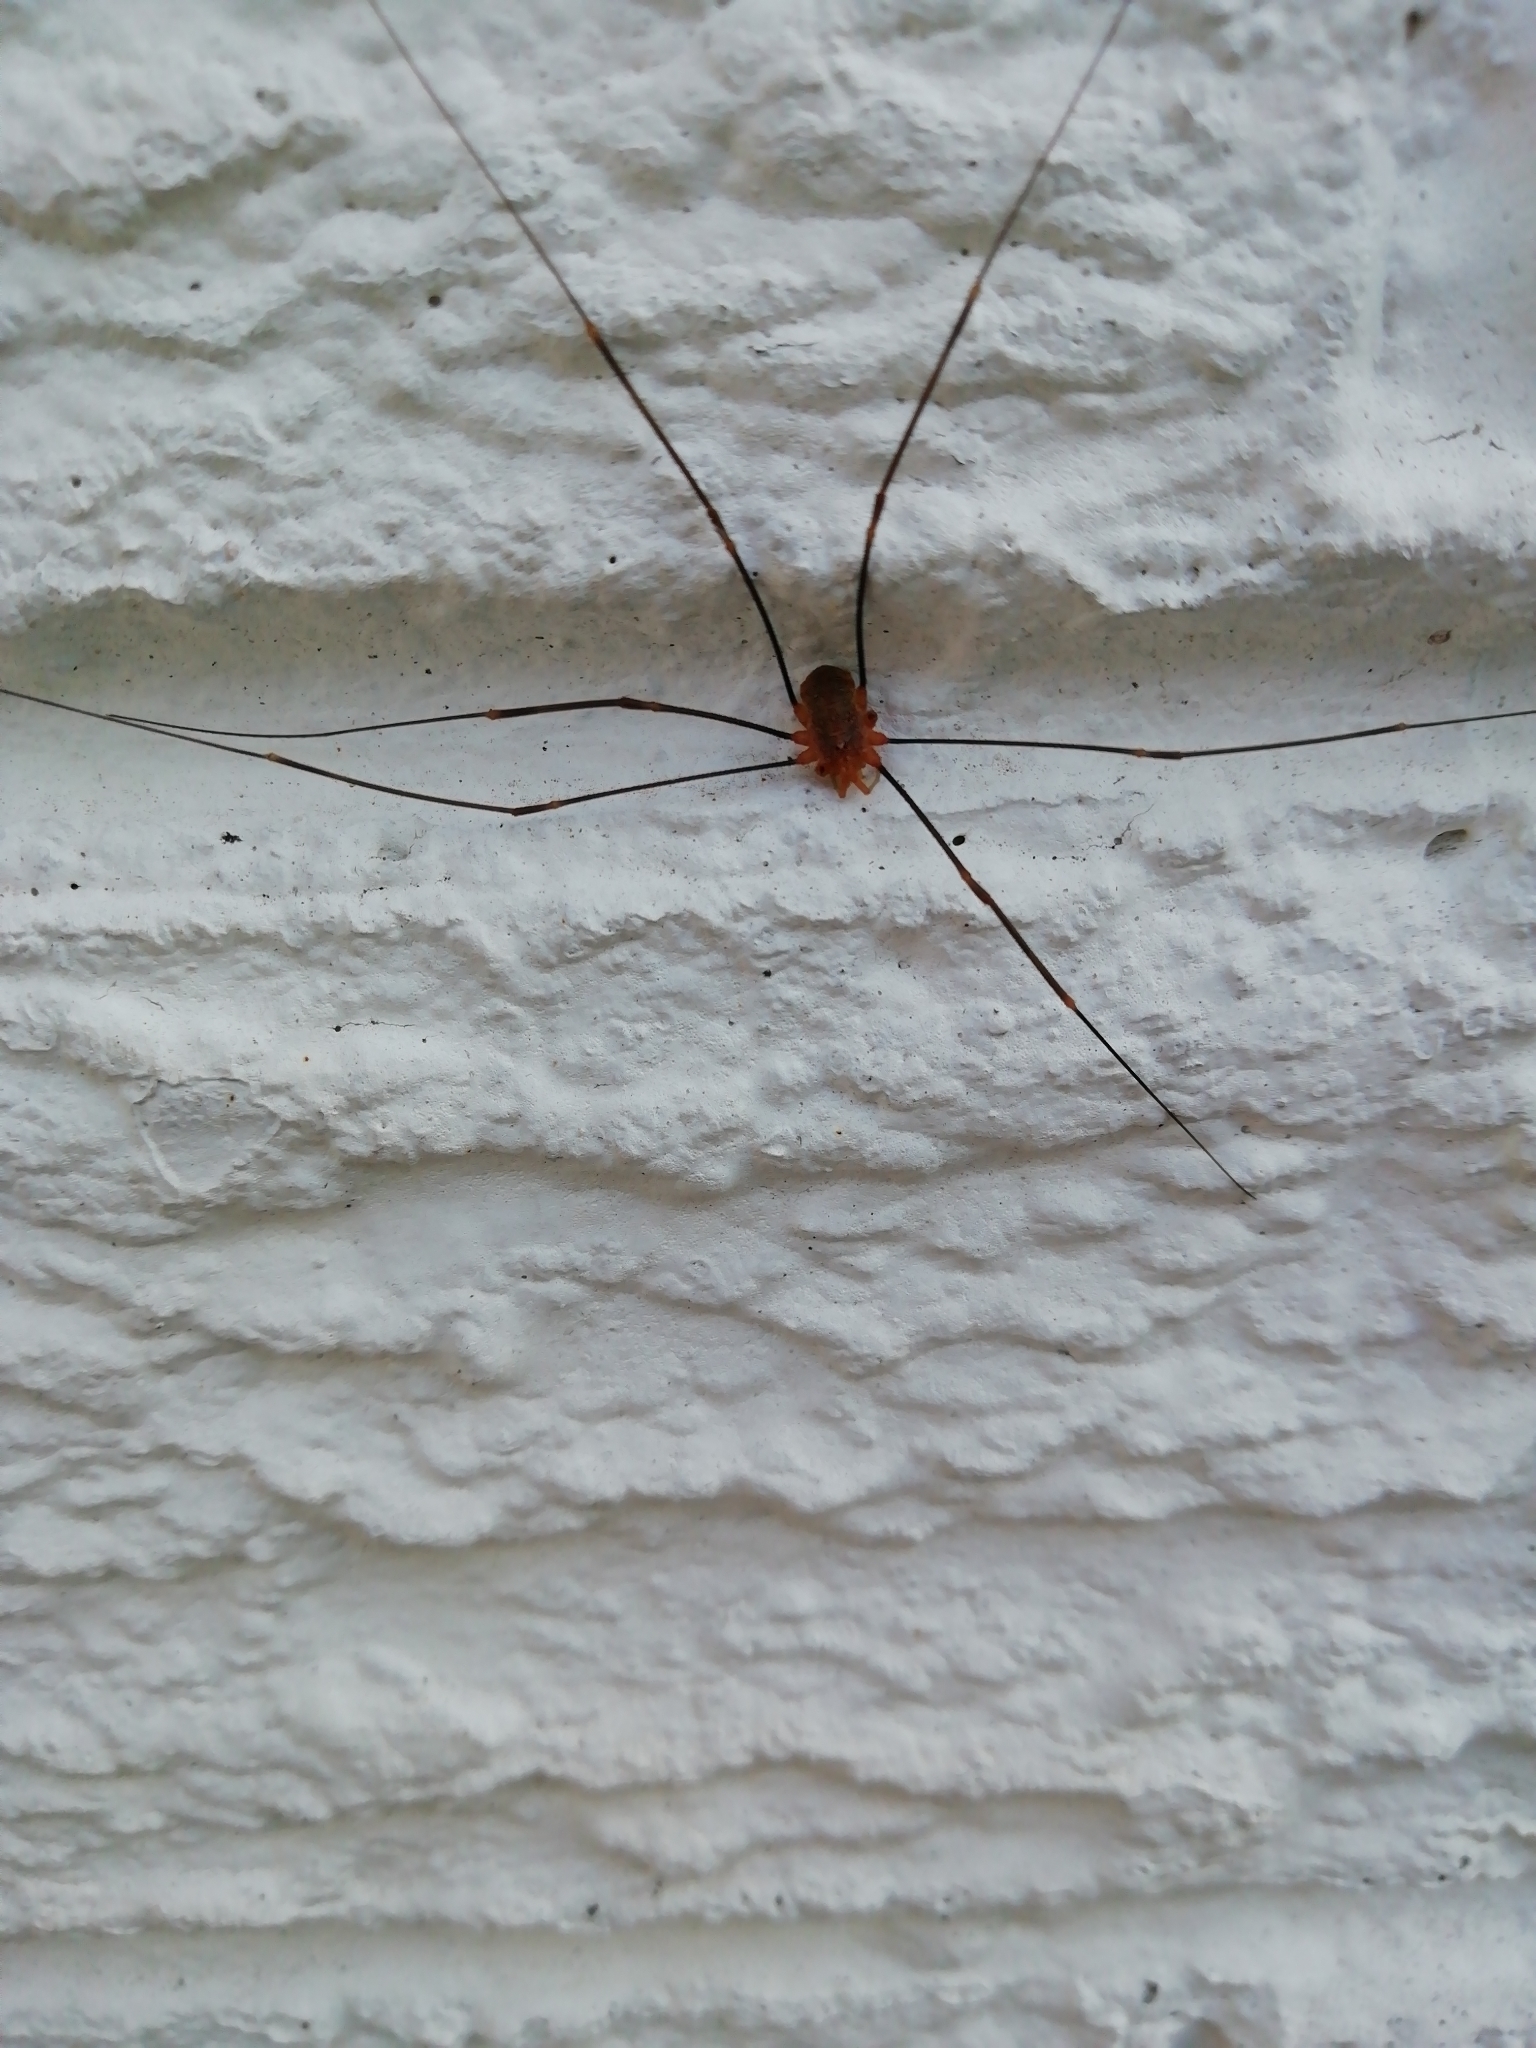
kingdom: Animalia
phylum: Arthropoda
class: Arachnida
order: Opiliones
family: Phalangiidae
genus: Opilio
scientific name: Opilio canestrinii
